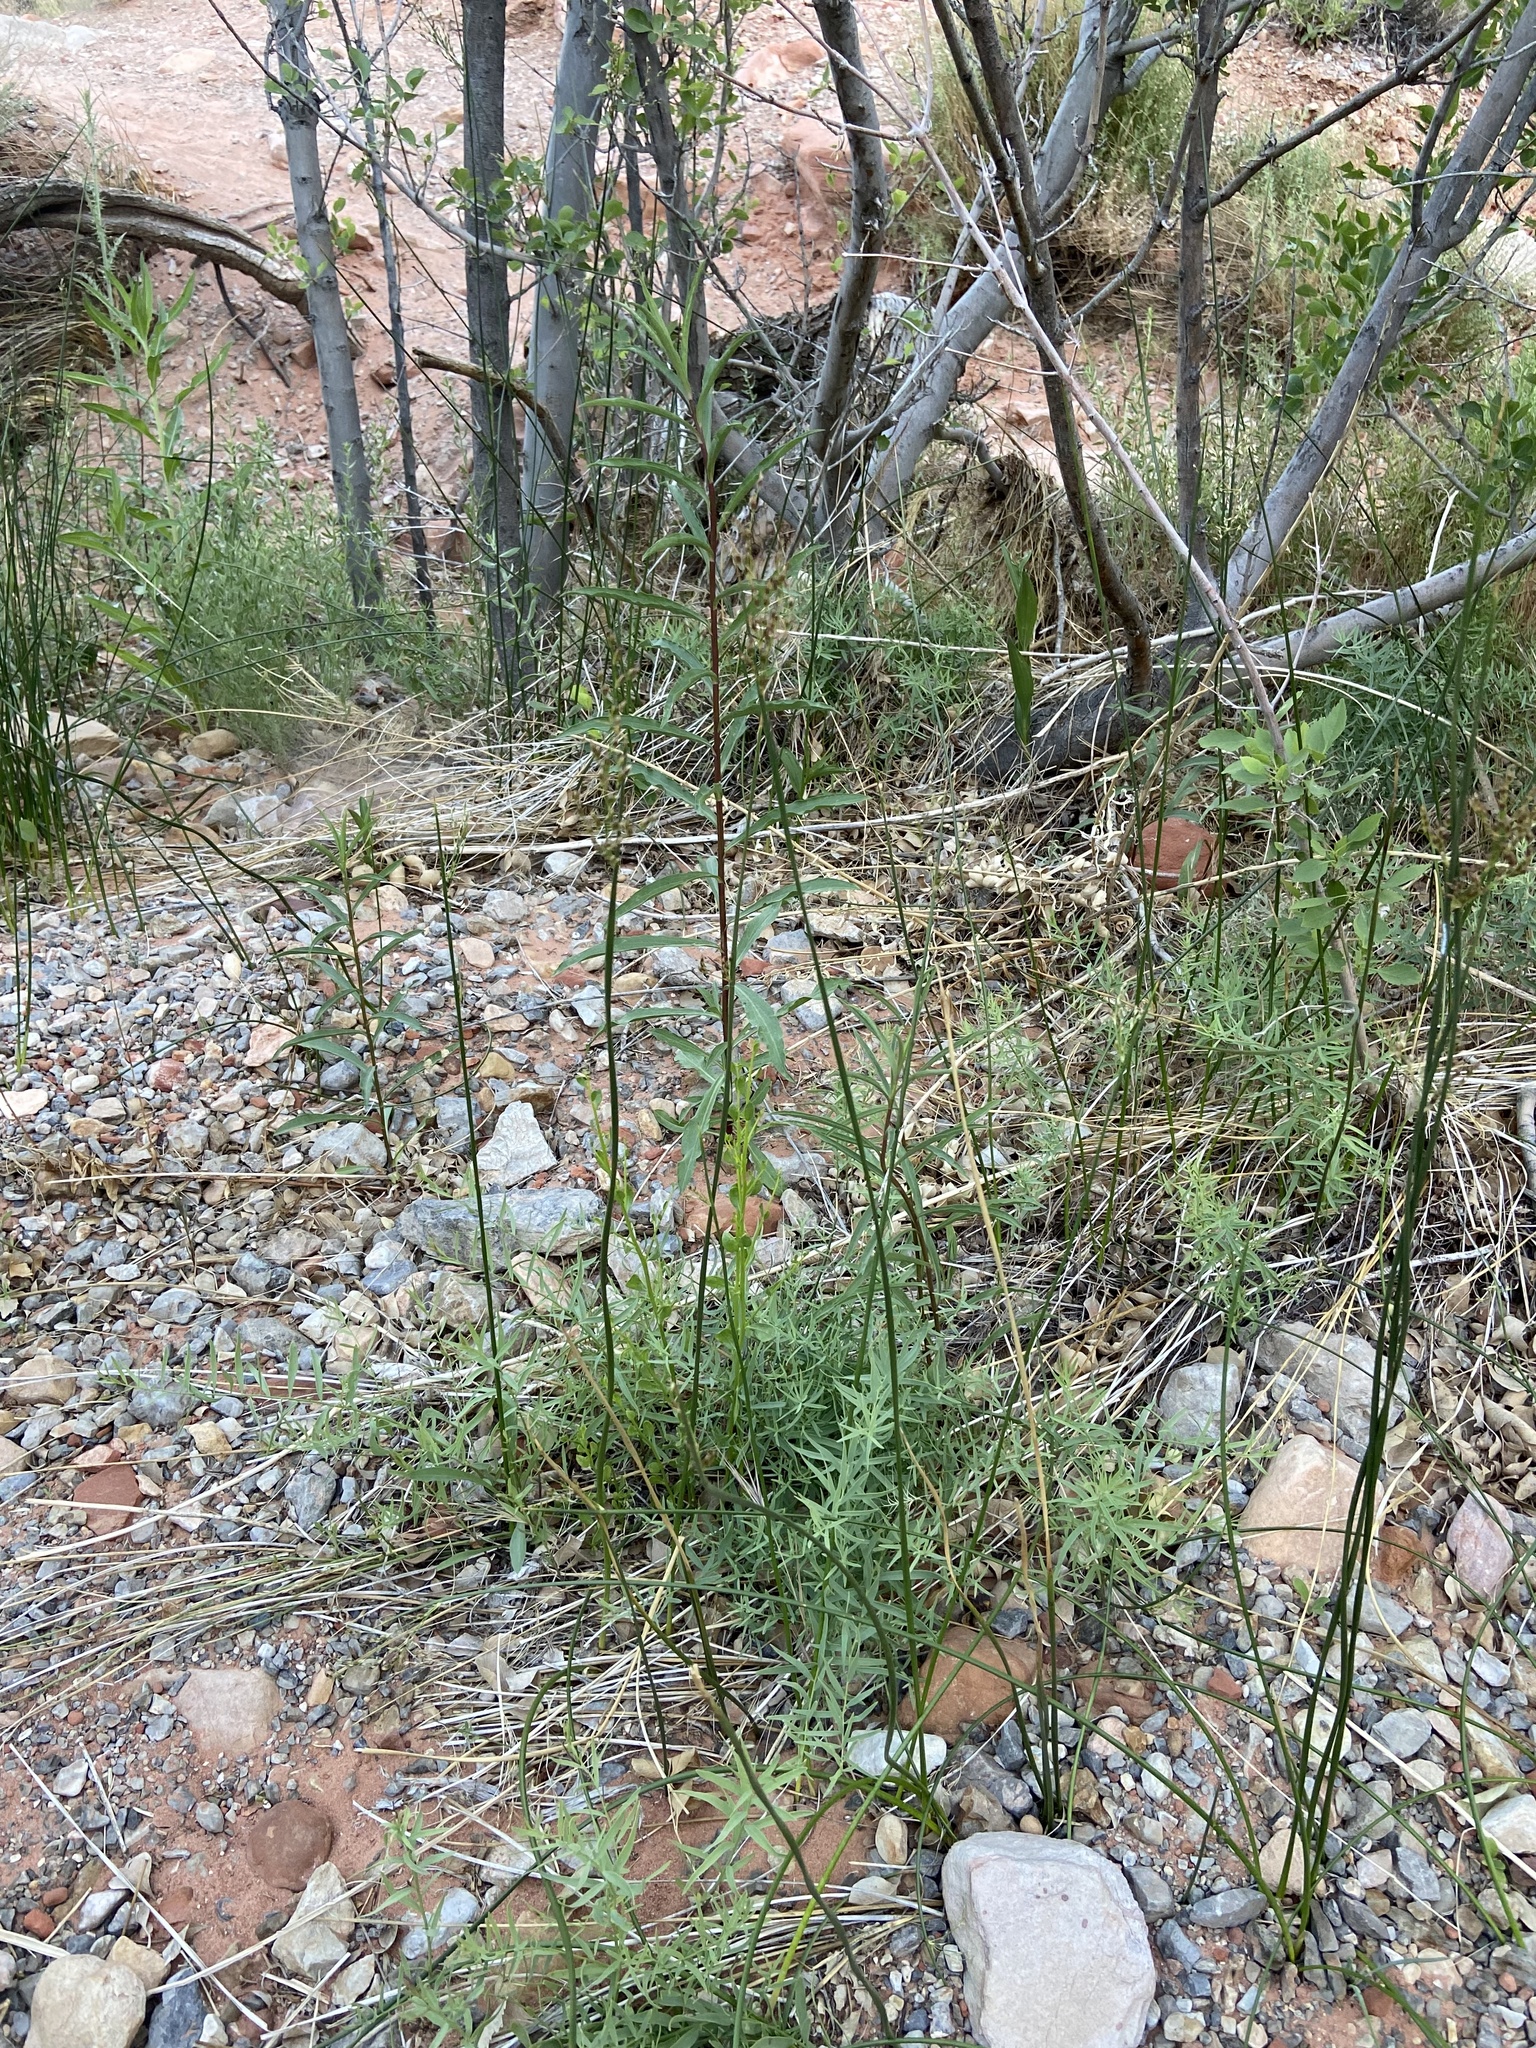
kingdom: Plantae
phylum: Tracheophyta
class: Liliopsida
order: Poales
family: Juncaceae
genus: Juncus
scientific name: Juncus balticus
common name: Baltic rush
